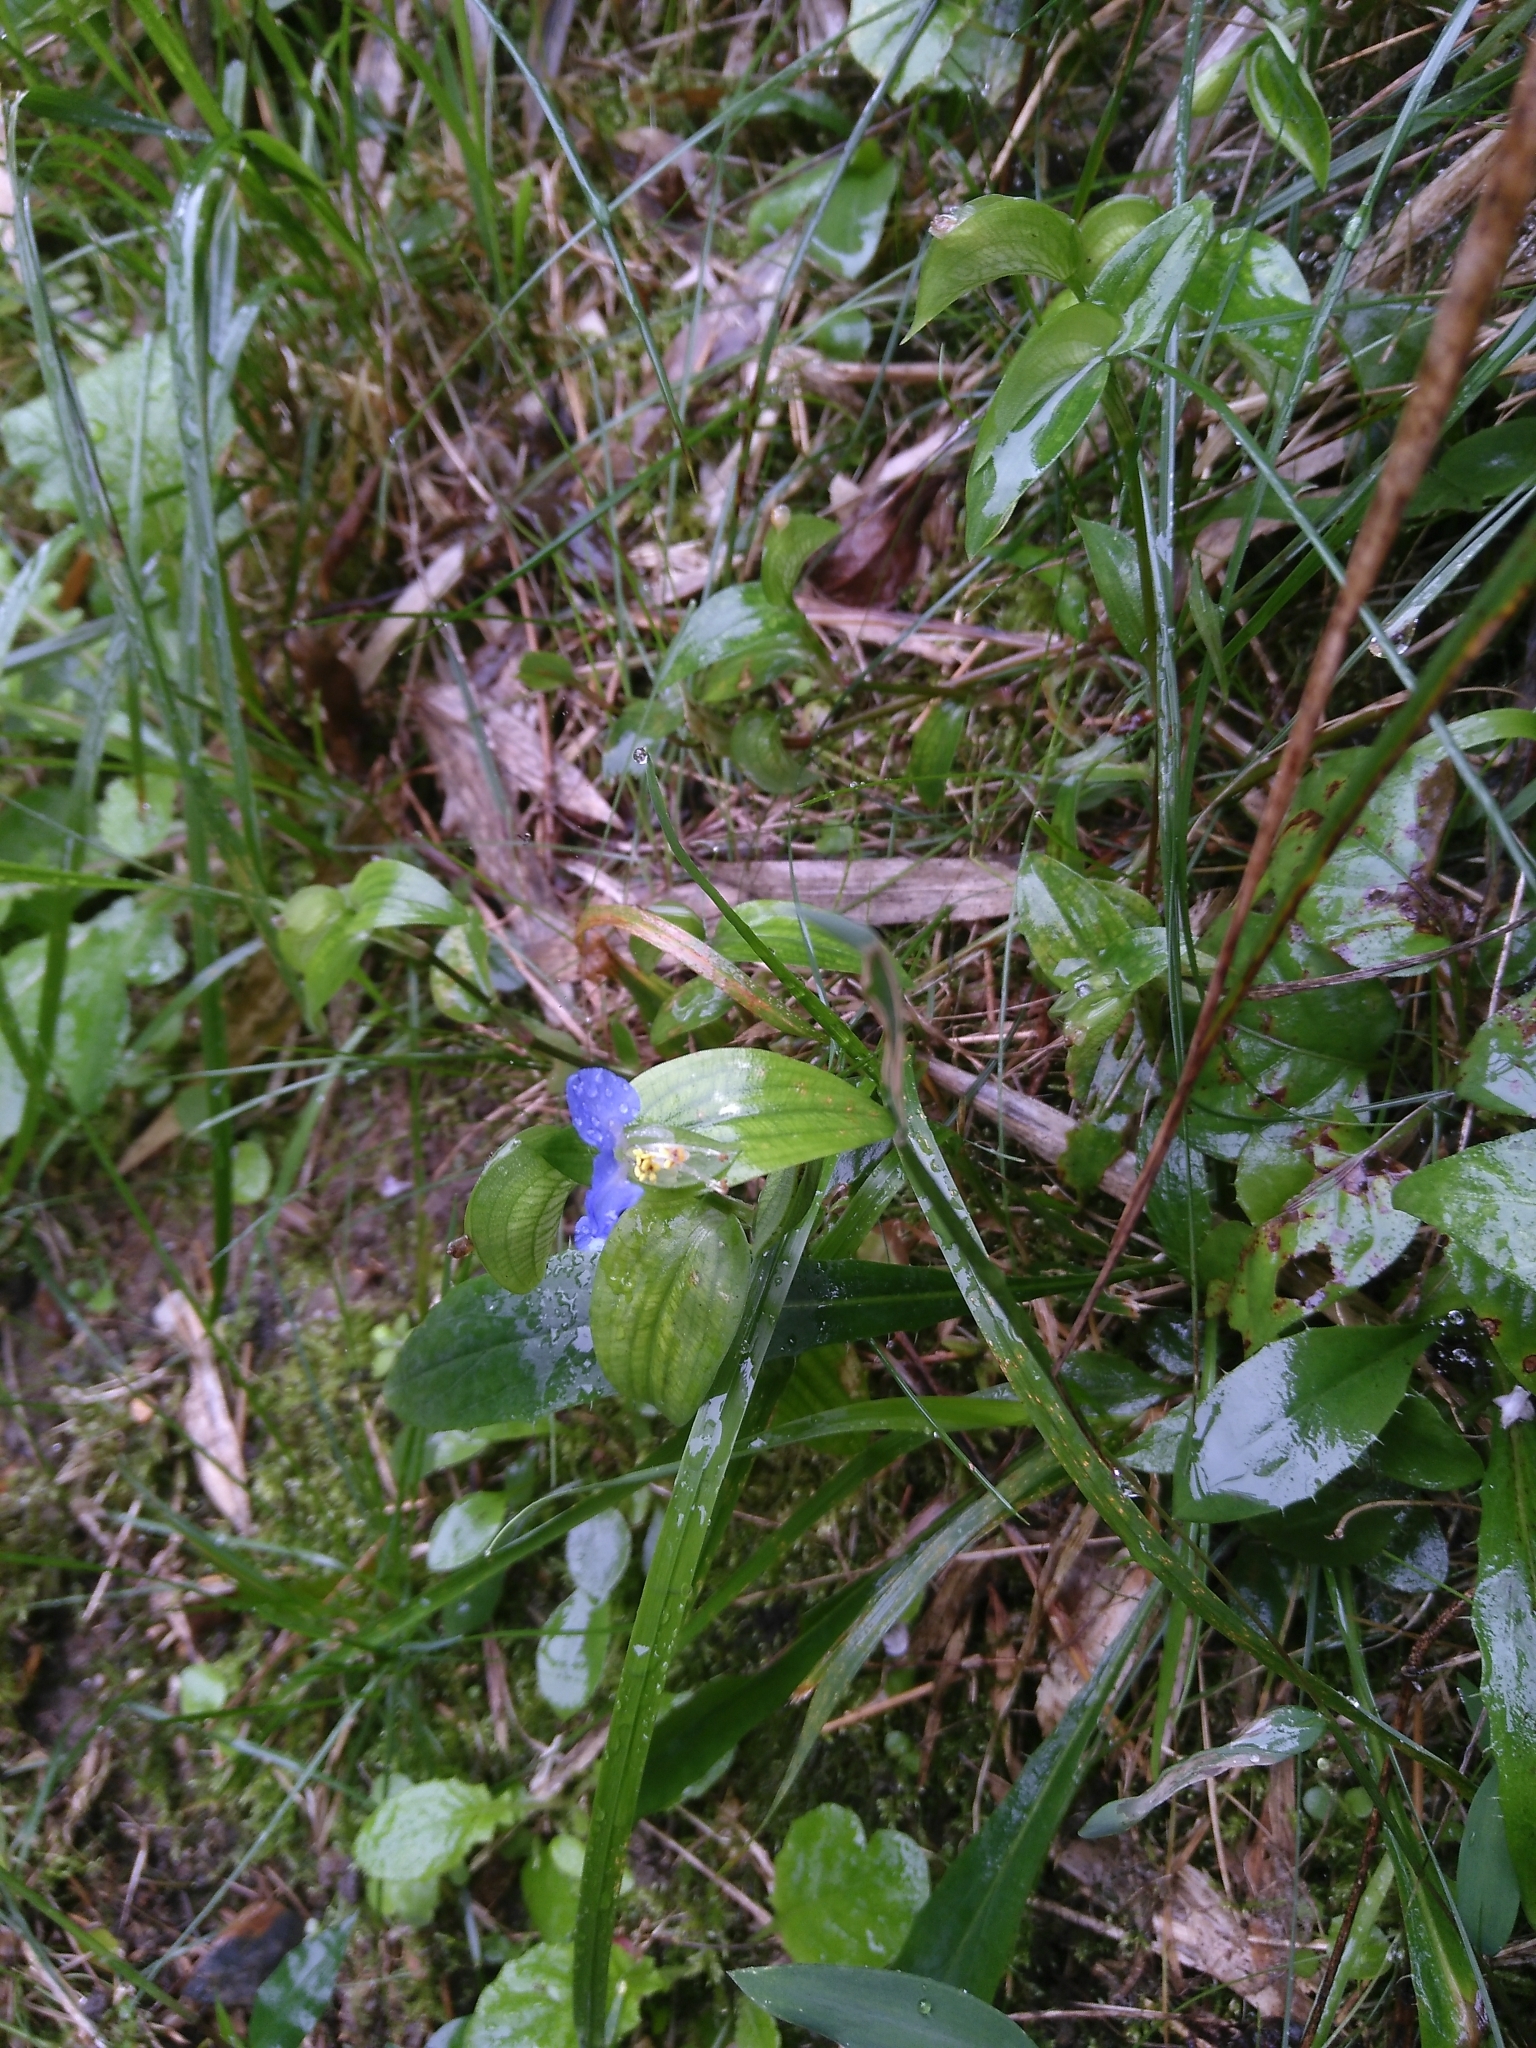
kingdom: Plantae
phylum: Tracheophyta
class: Liliopsida
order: Commelinales
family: Commelinaceae
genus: Commelina
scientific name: Commelina communis
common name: Asiatic dayflower
